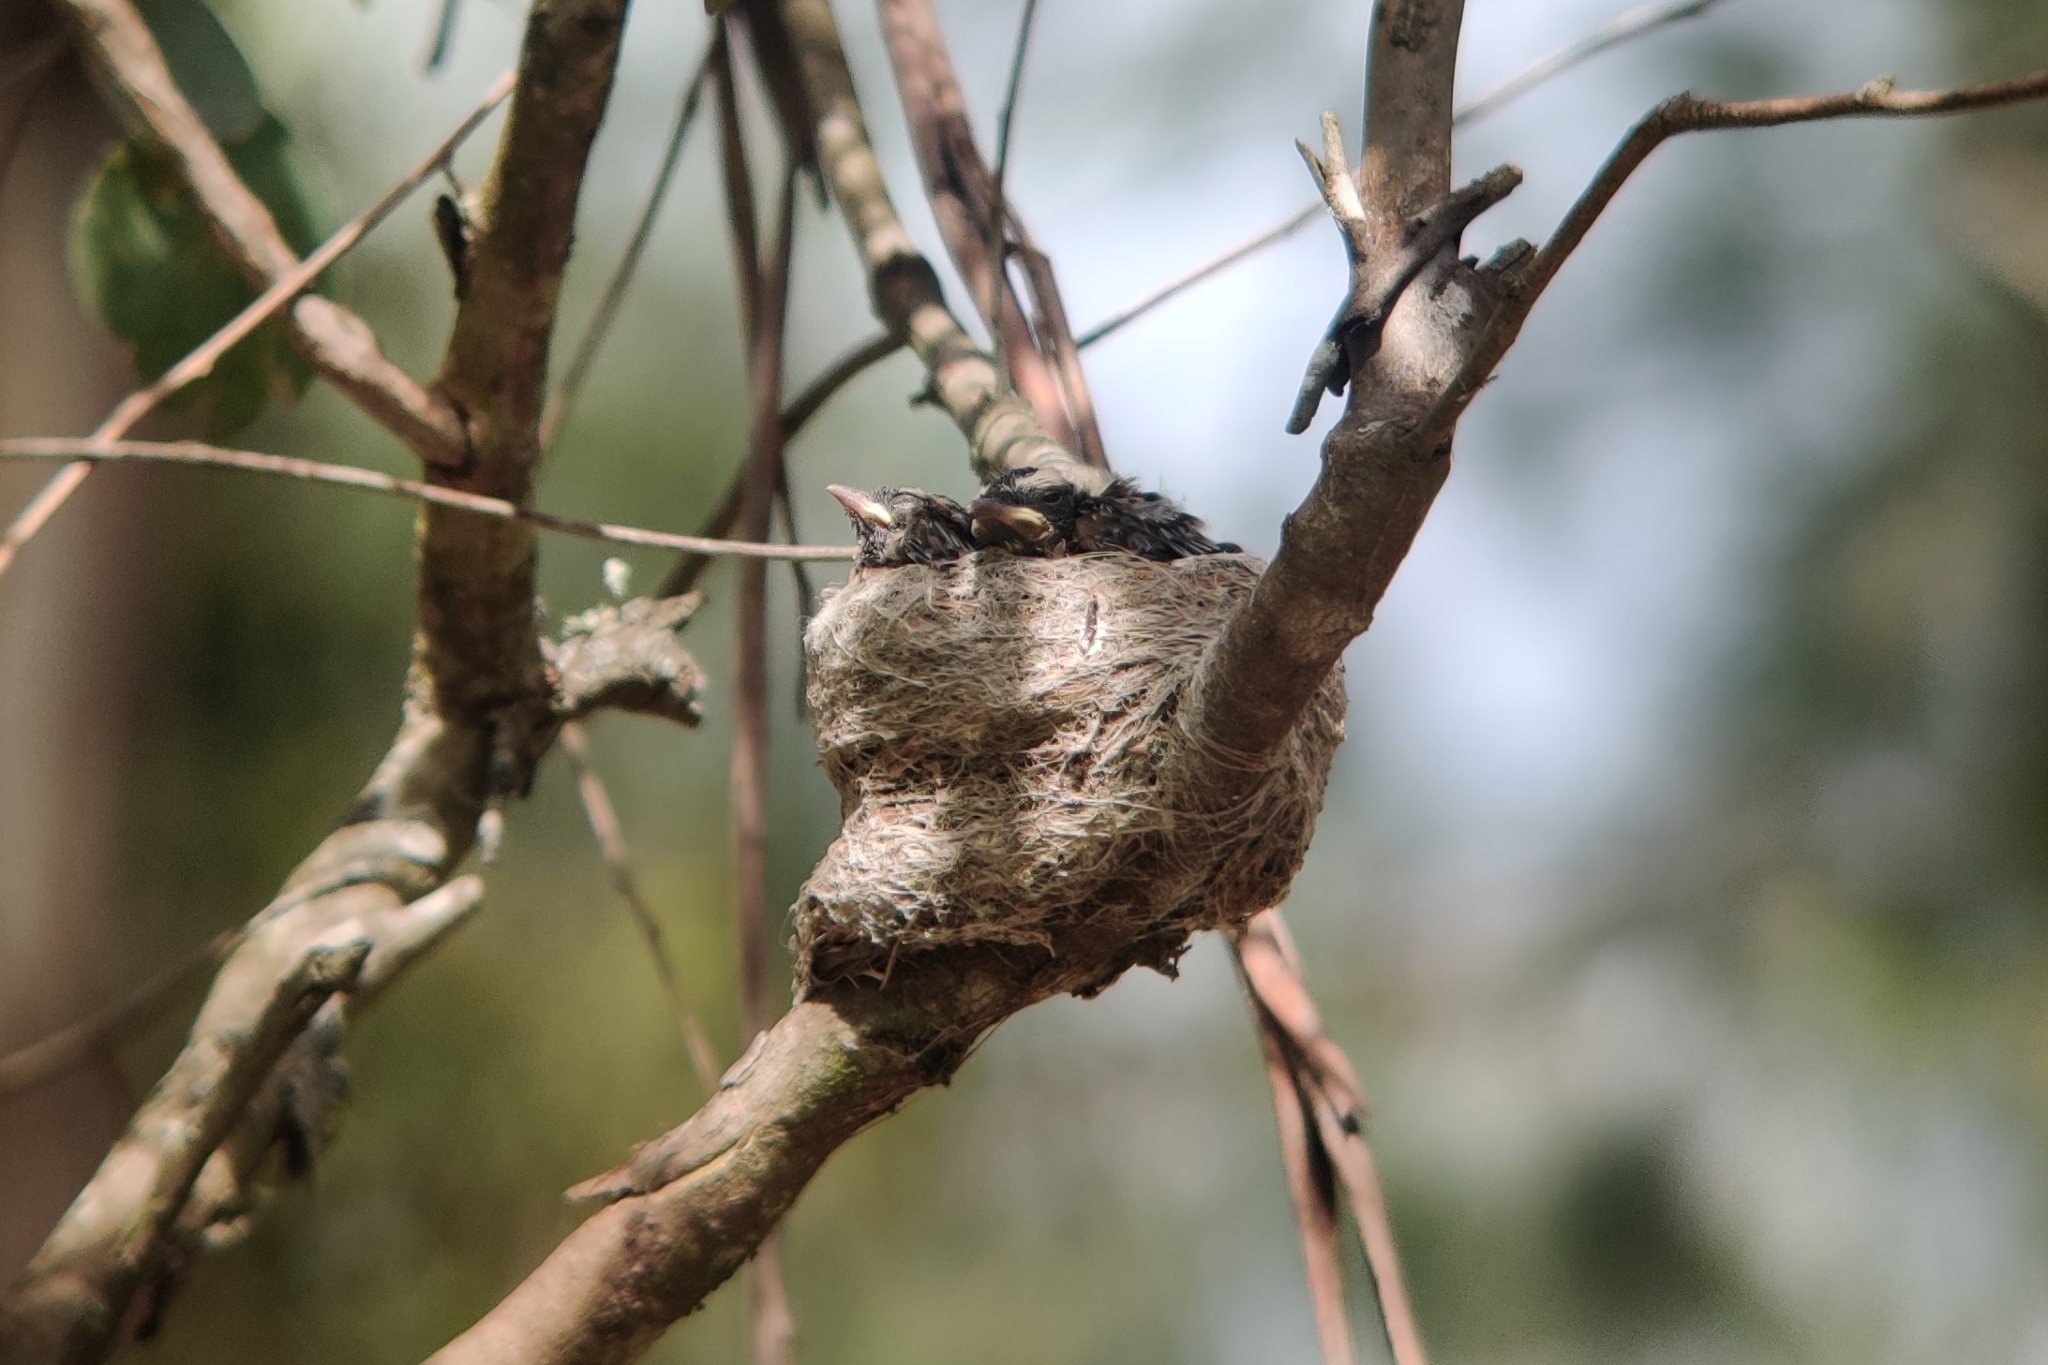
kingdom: Animalia
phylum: Chordata
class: Aves
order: Passeriformes
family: Rhipiduridae
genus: Rhipidura
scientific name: Rhipidura leucophrys
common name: Willie wagtail
